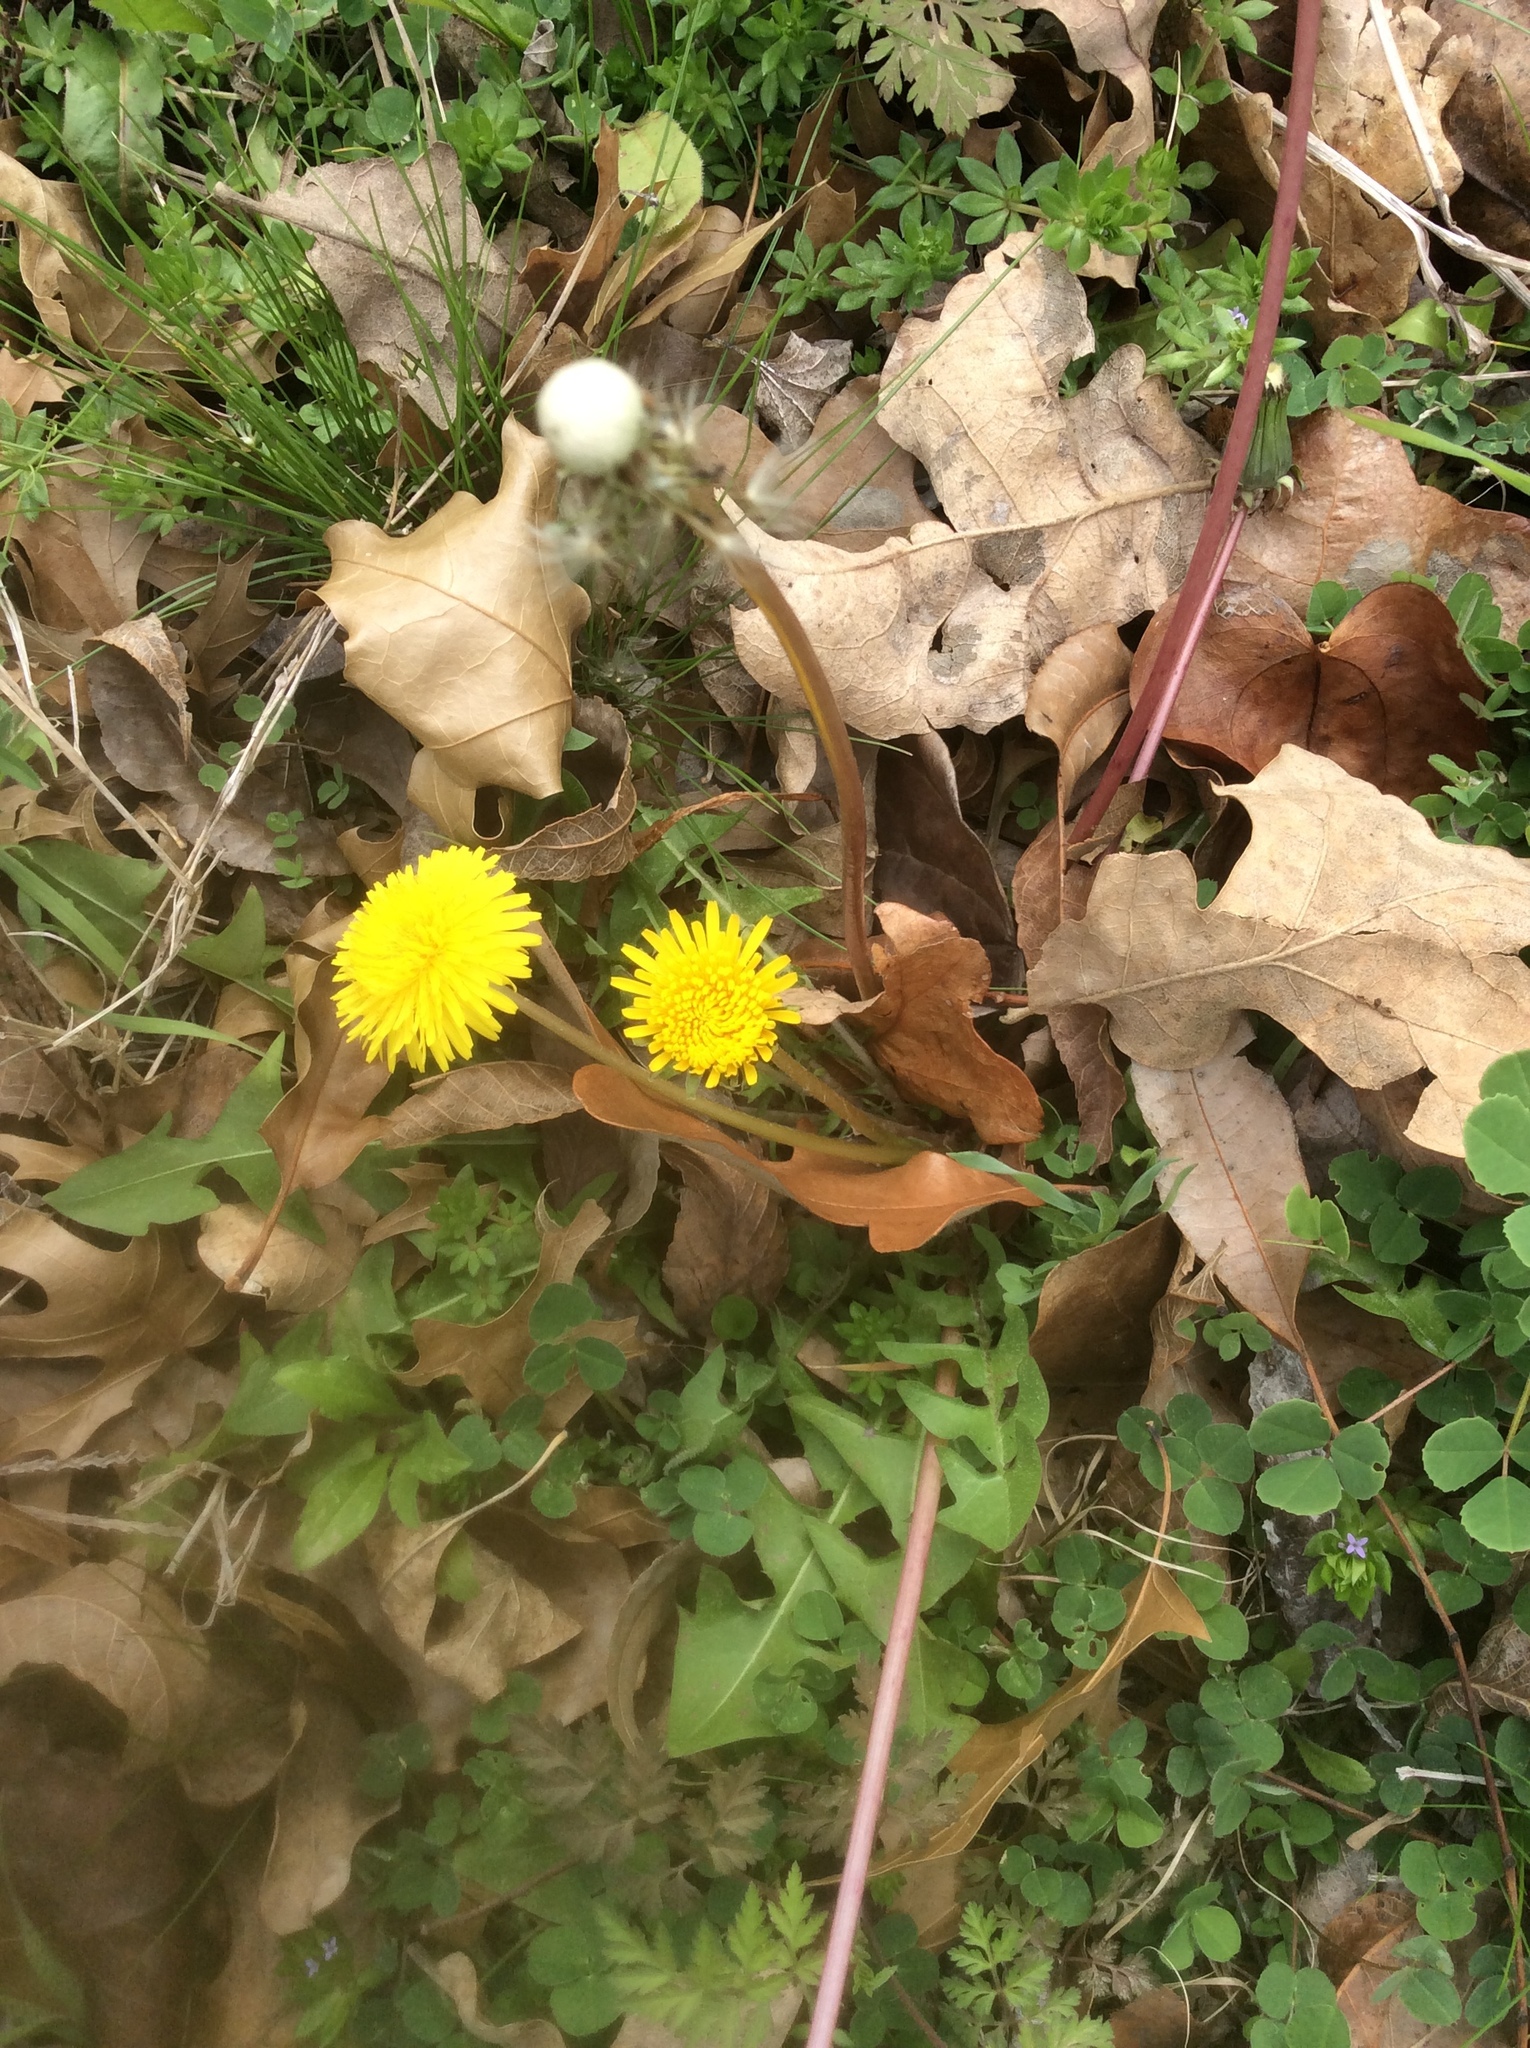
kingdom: Plantae
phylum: Tracheophyta
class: Magnoliopsida
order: Asterales
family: Asteraceae
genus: Taraxacum
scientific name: Taraxacum officinale
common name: Common dandelion
